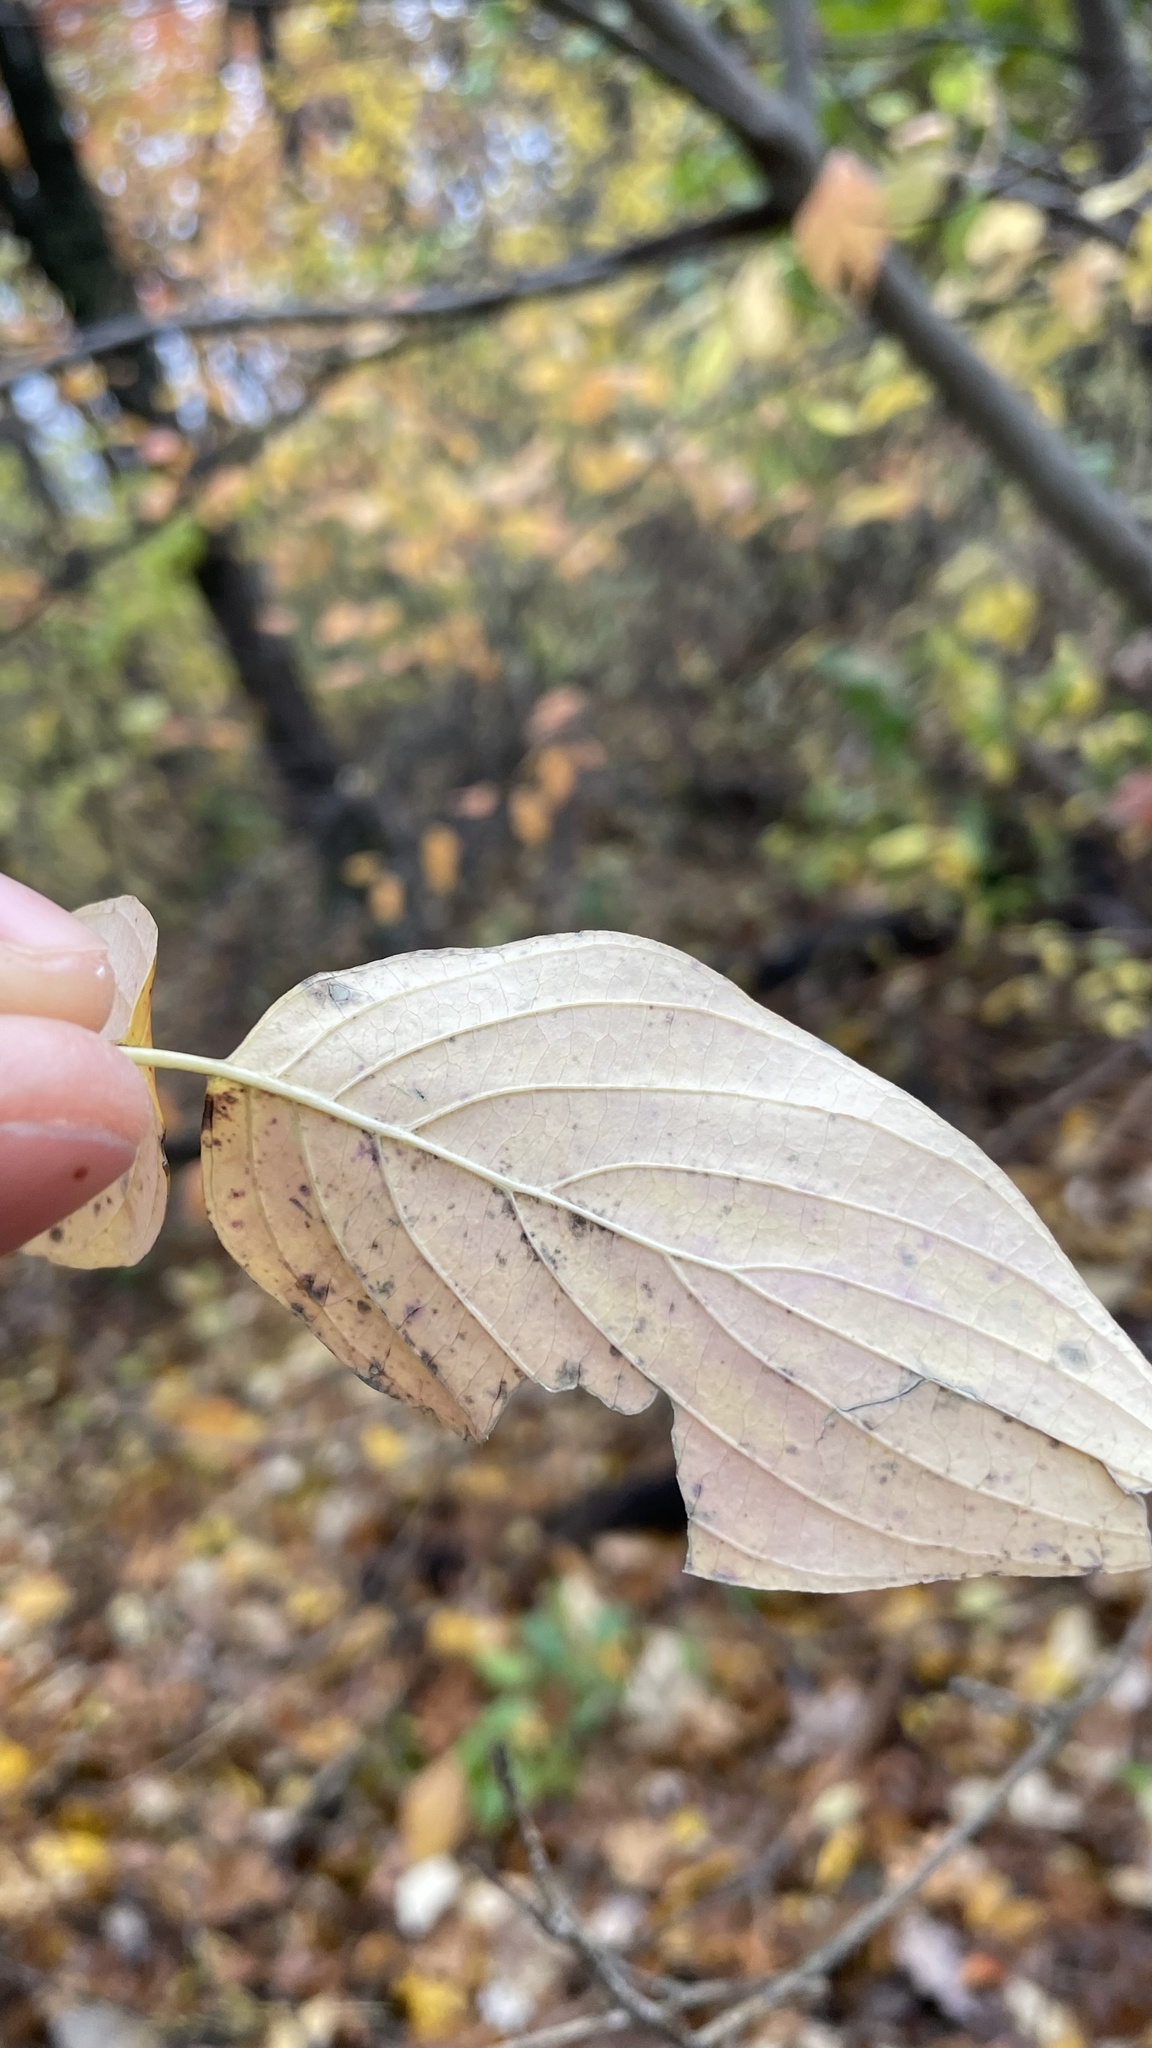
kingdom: Plantae
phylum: Tracheophyta
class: Magnoliopsida
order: Cornales
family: Cornaceae
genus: Cornus
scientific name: Cornus alternifolia
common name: Pagoda dogwood
